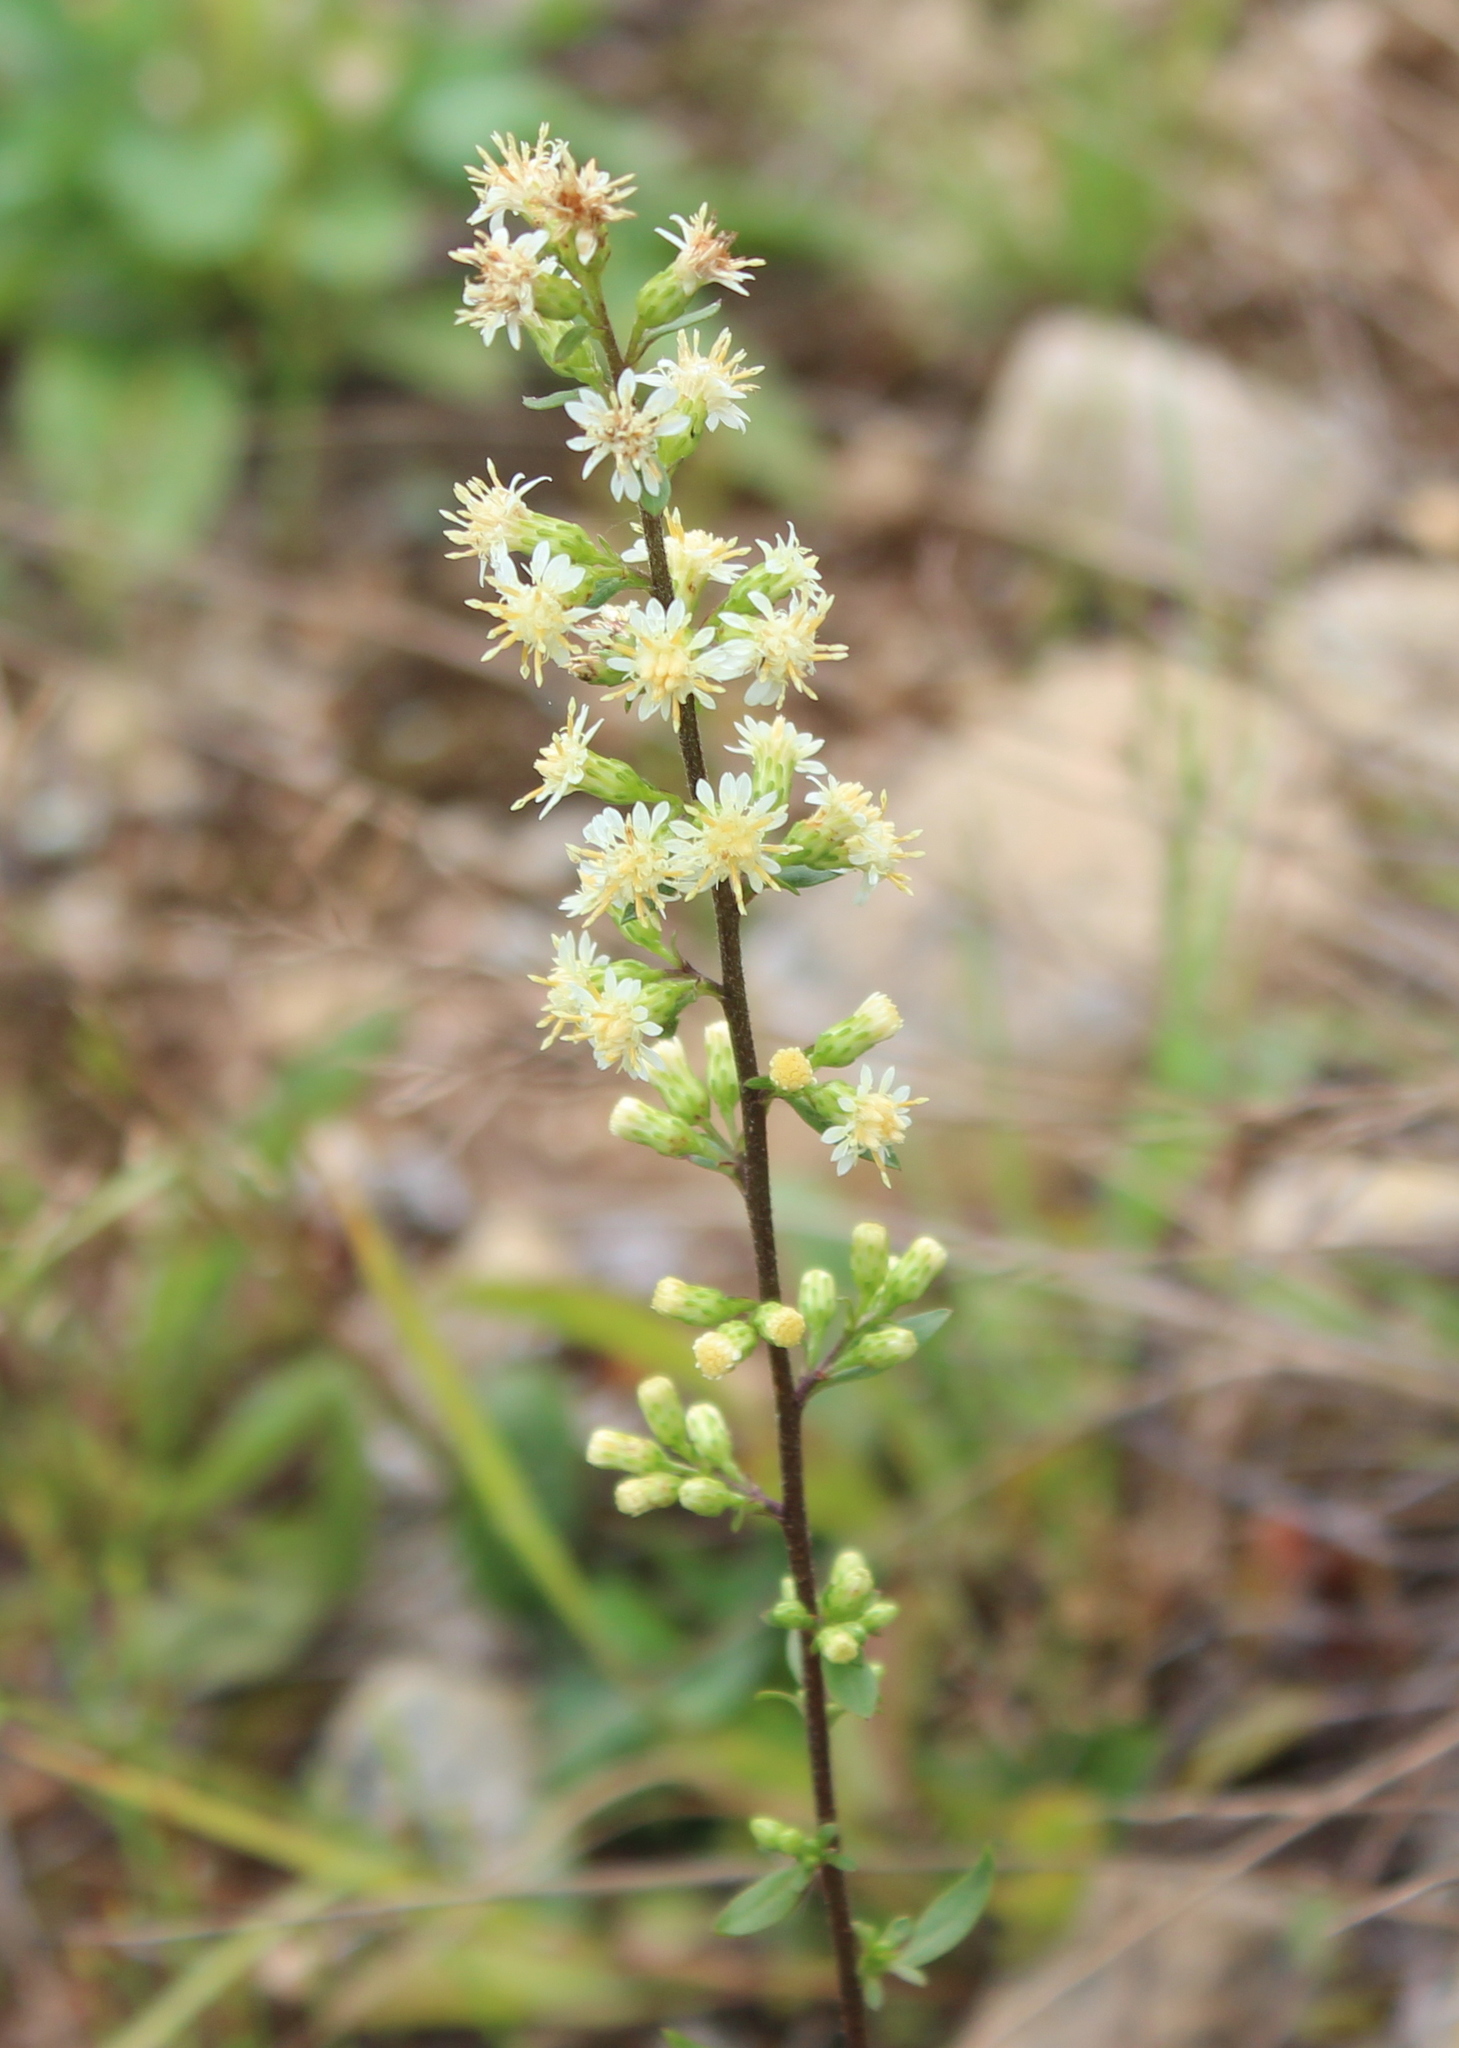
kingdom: Plantae
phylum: Tracheophyta
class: Magnoliopsida
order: Asterales
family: Asteraceae
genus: Solidago
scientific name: Solidago bicolor
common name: Silverrod
